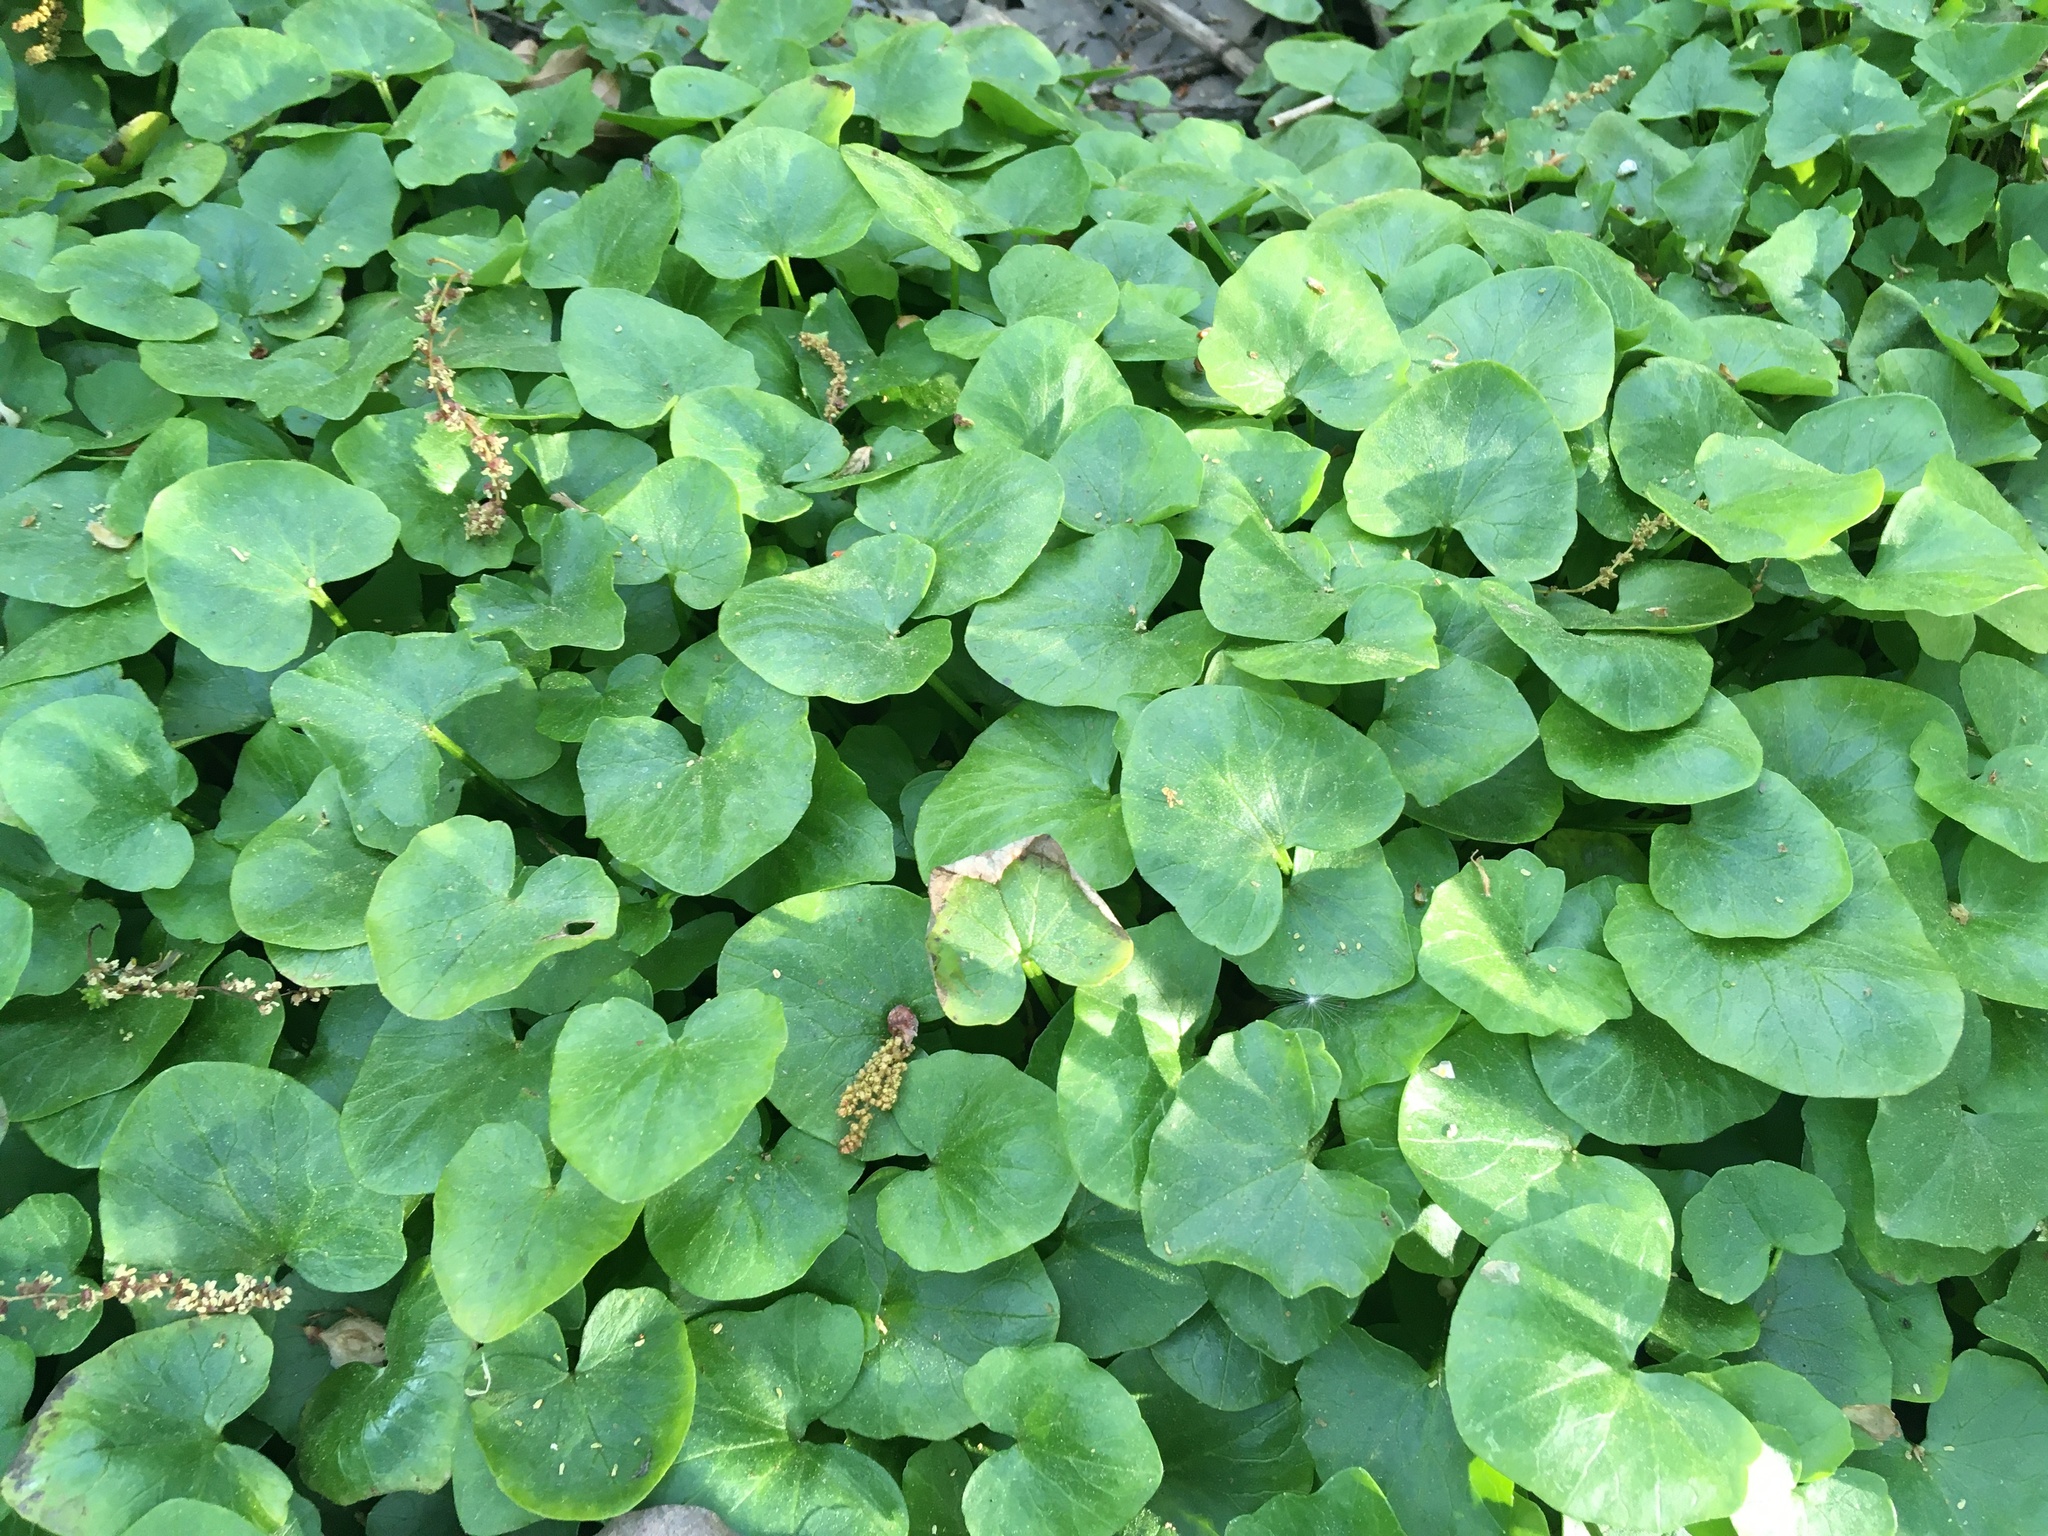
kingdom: Plantae
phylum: Tracheophyta
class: Magnoliopsida
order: Ranunculales
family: Ranunculaceae
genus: Ficaria
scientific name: Ficaria verna
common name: Lesser celandine
